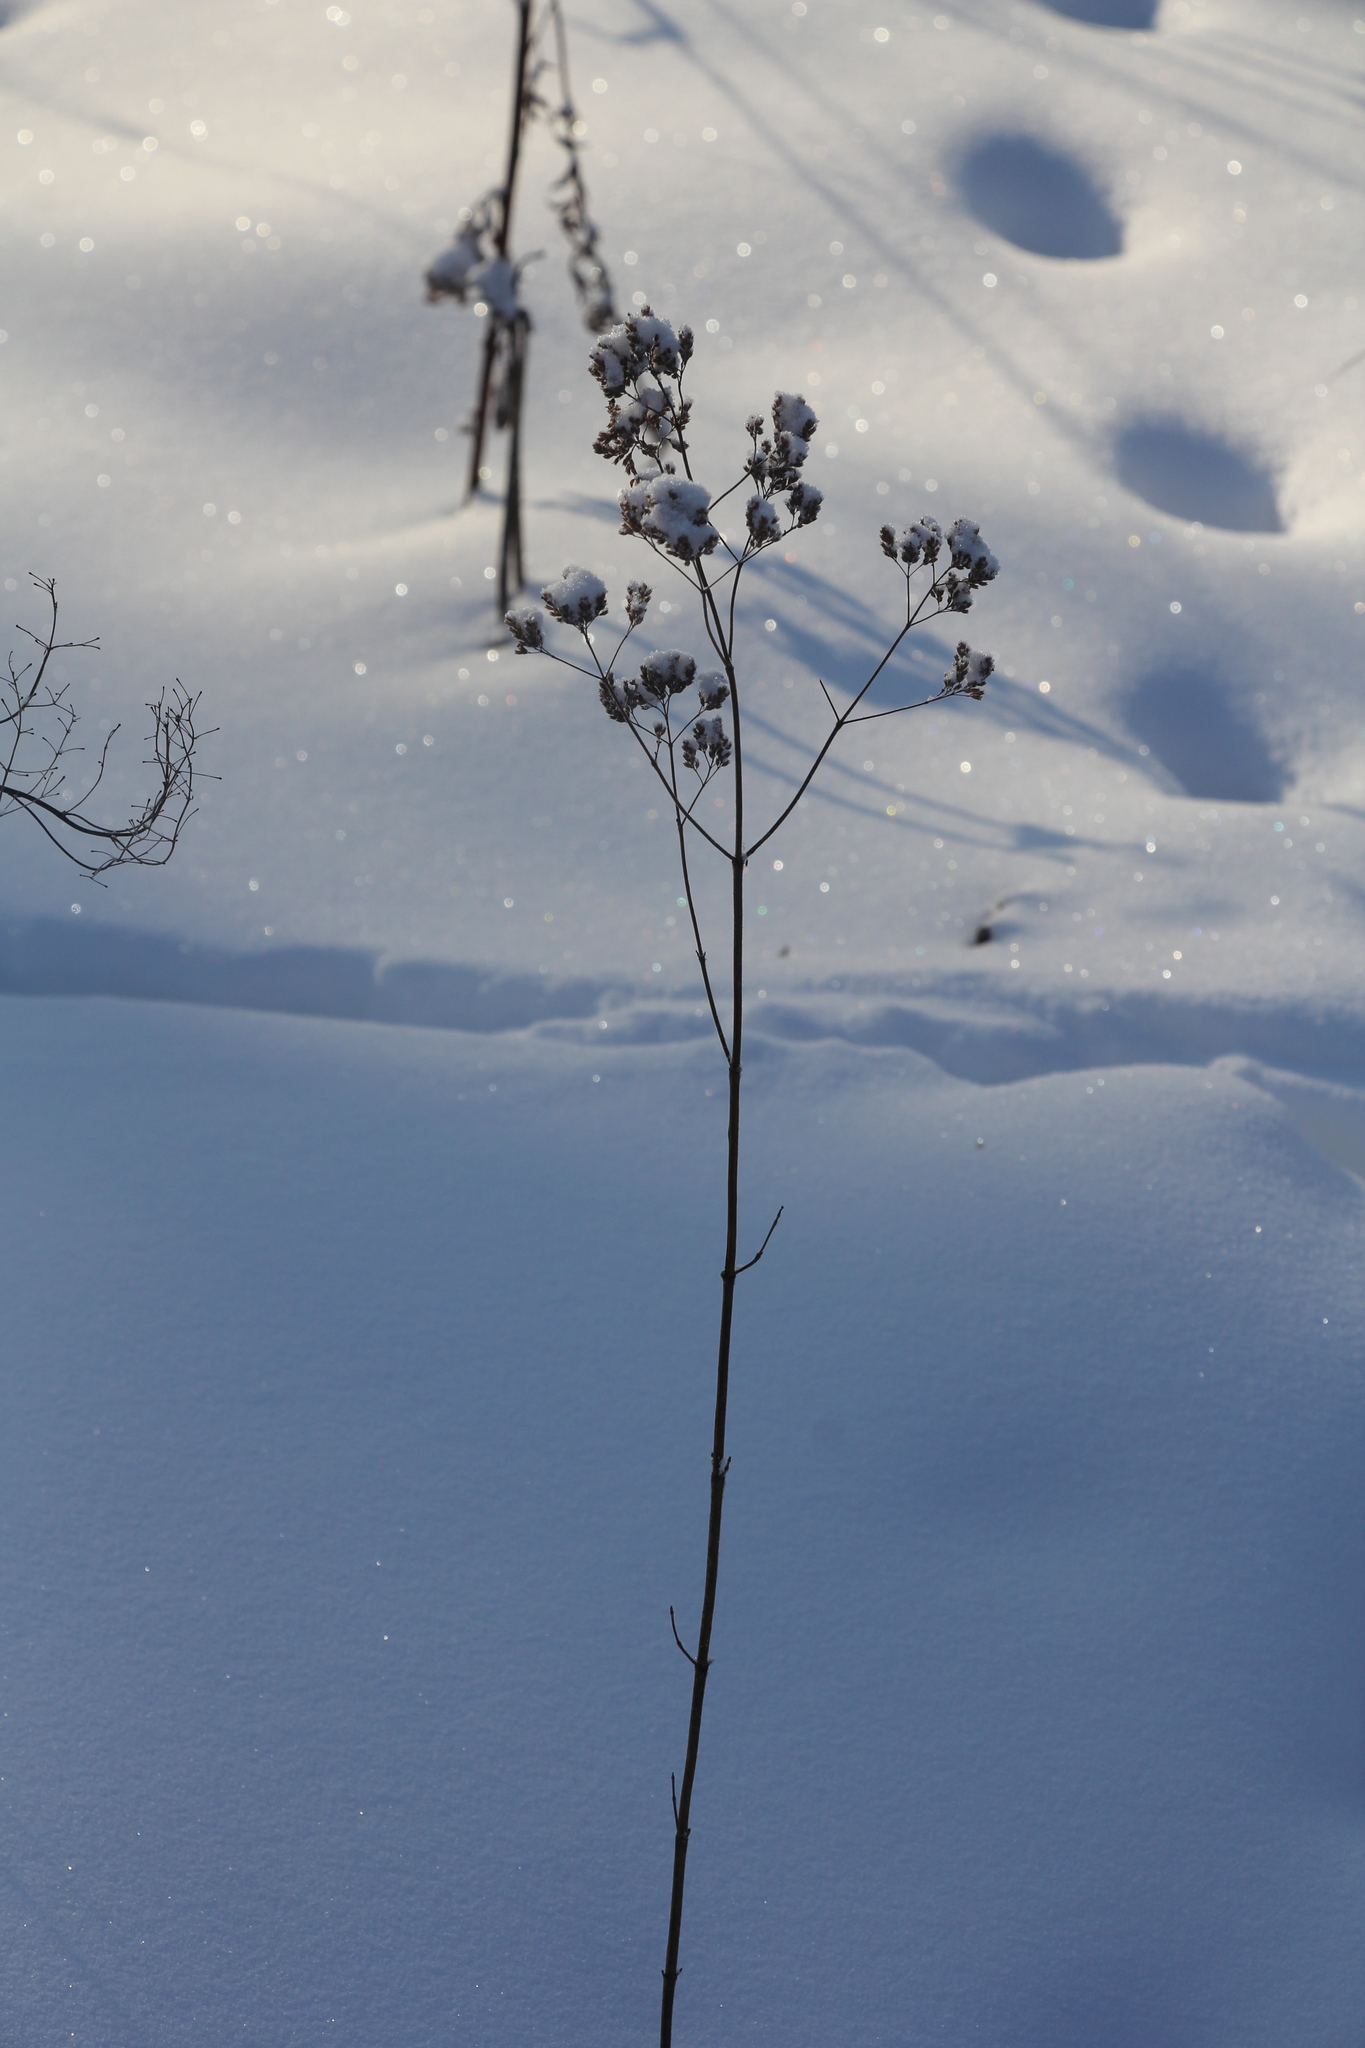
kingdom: Plantae
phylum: Tracheophyta
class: Magnoliopsida
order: Lamiales
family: Lamiaceae
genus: Origanum
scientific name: Origanum vulgare
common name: Wild marjoram
